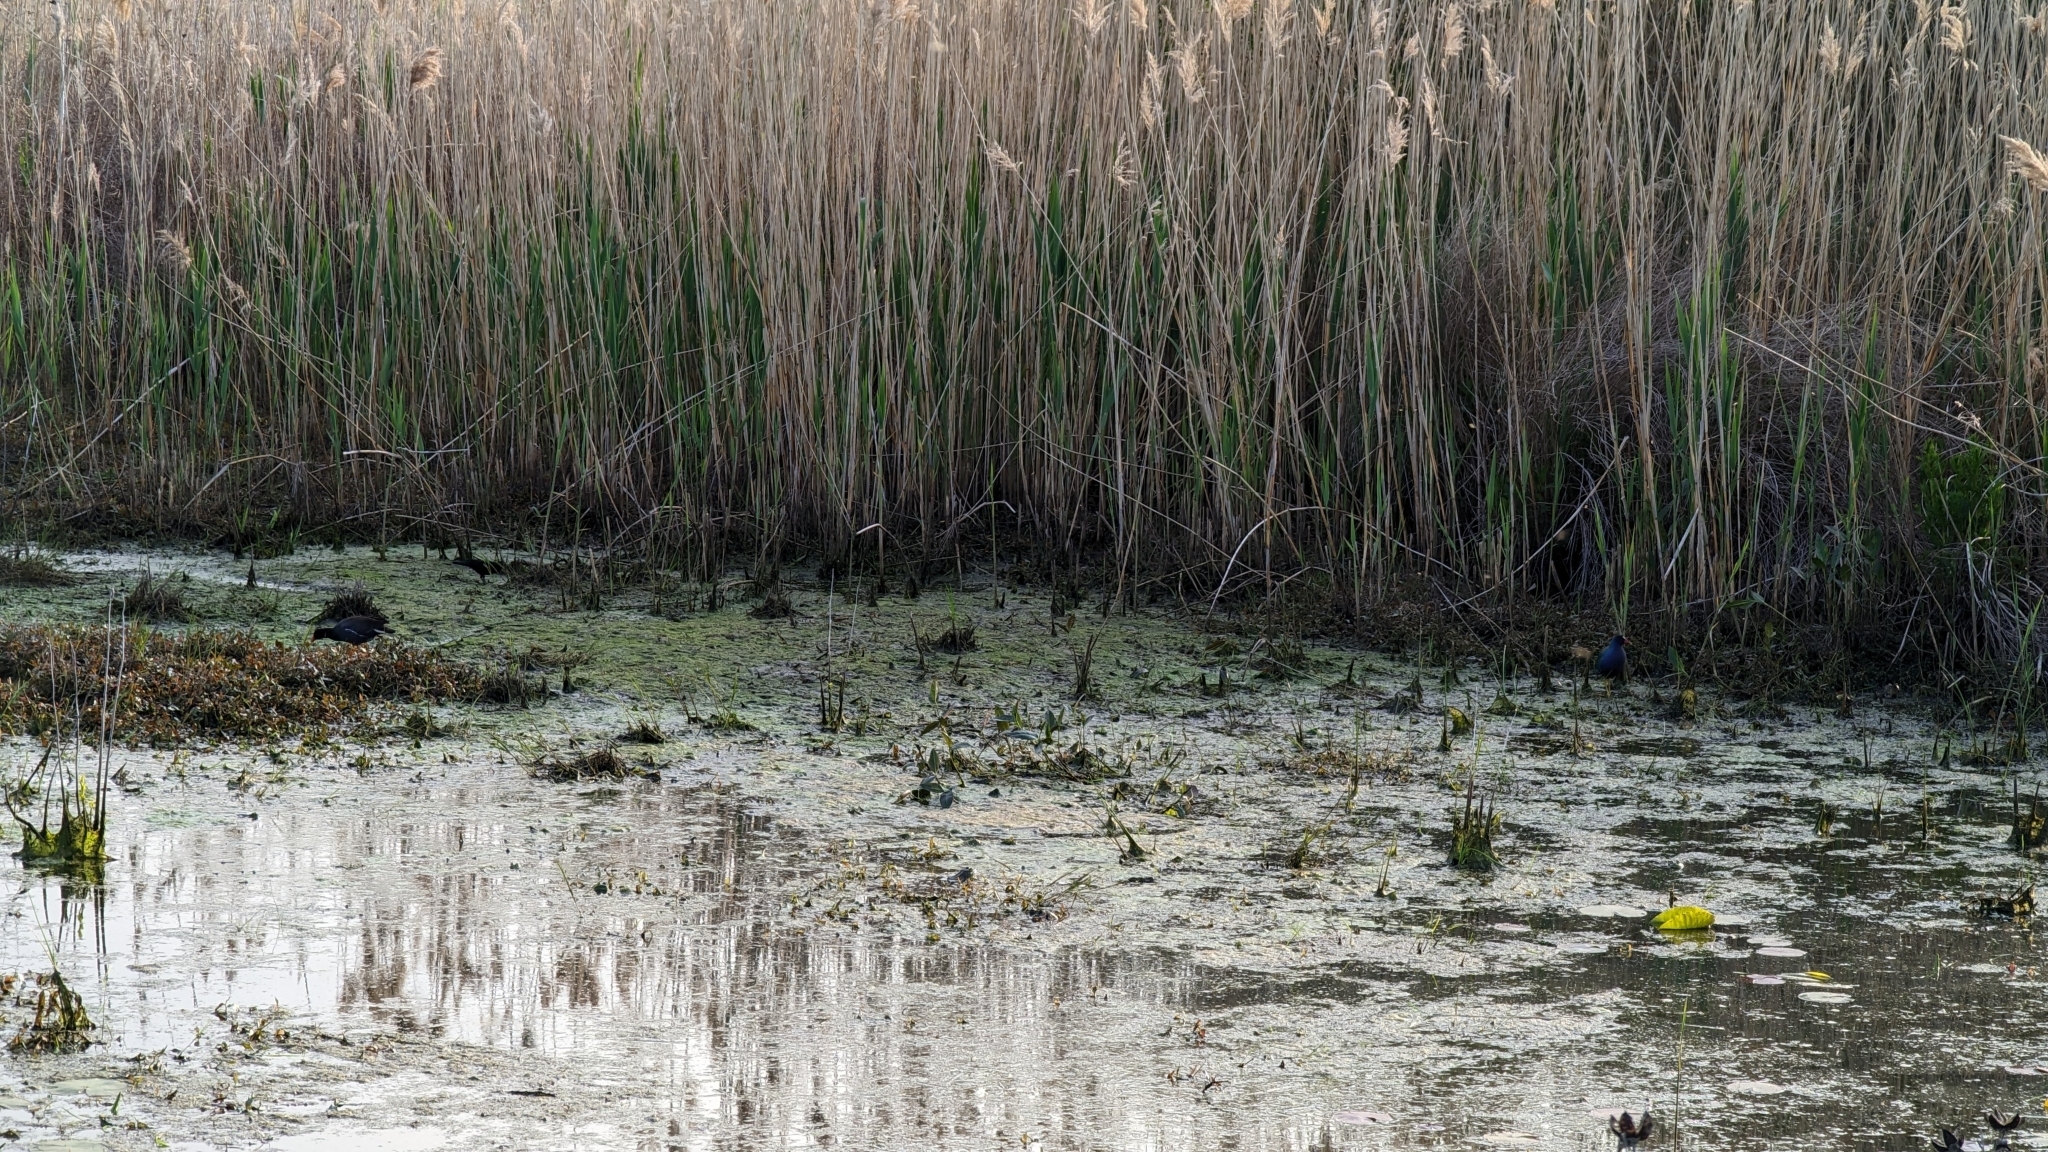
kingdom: Animalia
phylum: Chordata
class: Aves
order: Gruiformes
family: Rallidae
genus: Porphyrio
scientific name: Porphyrio martinica
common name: Purple gallinule
